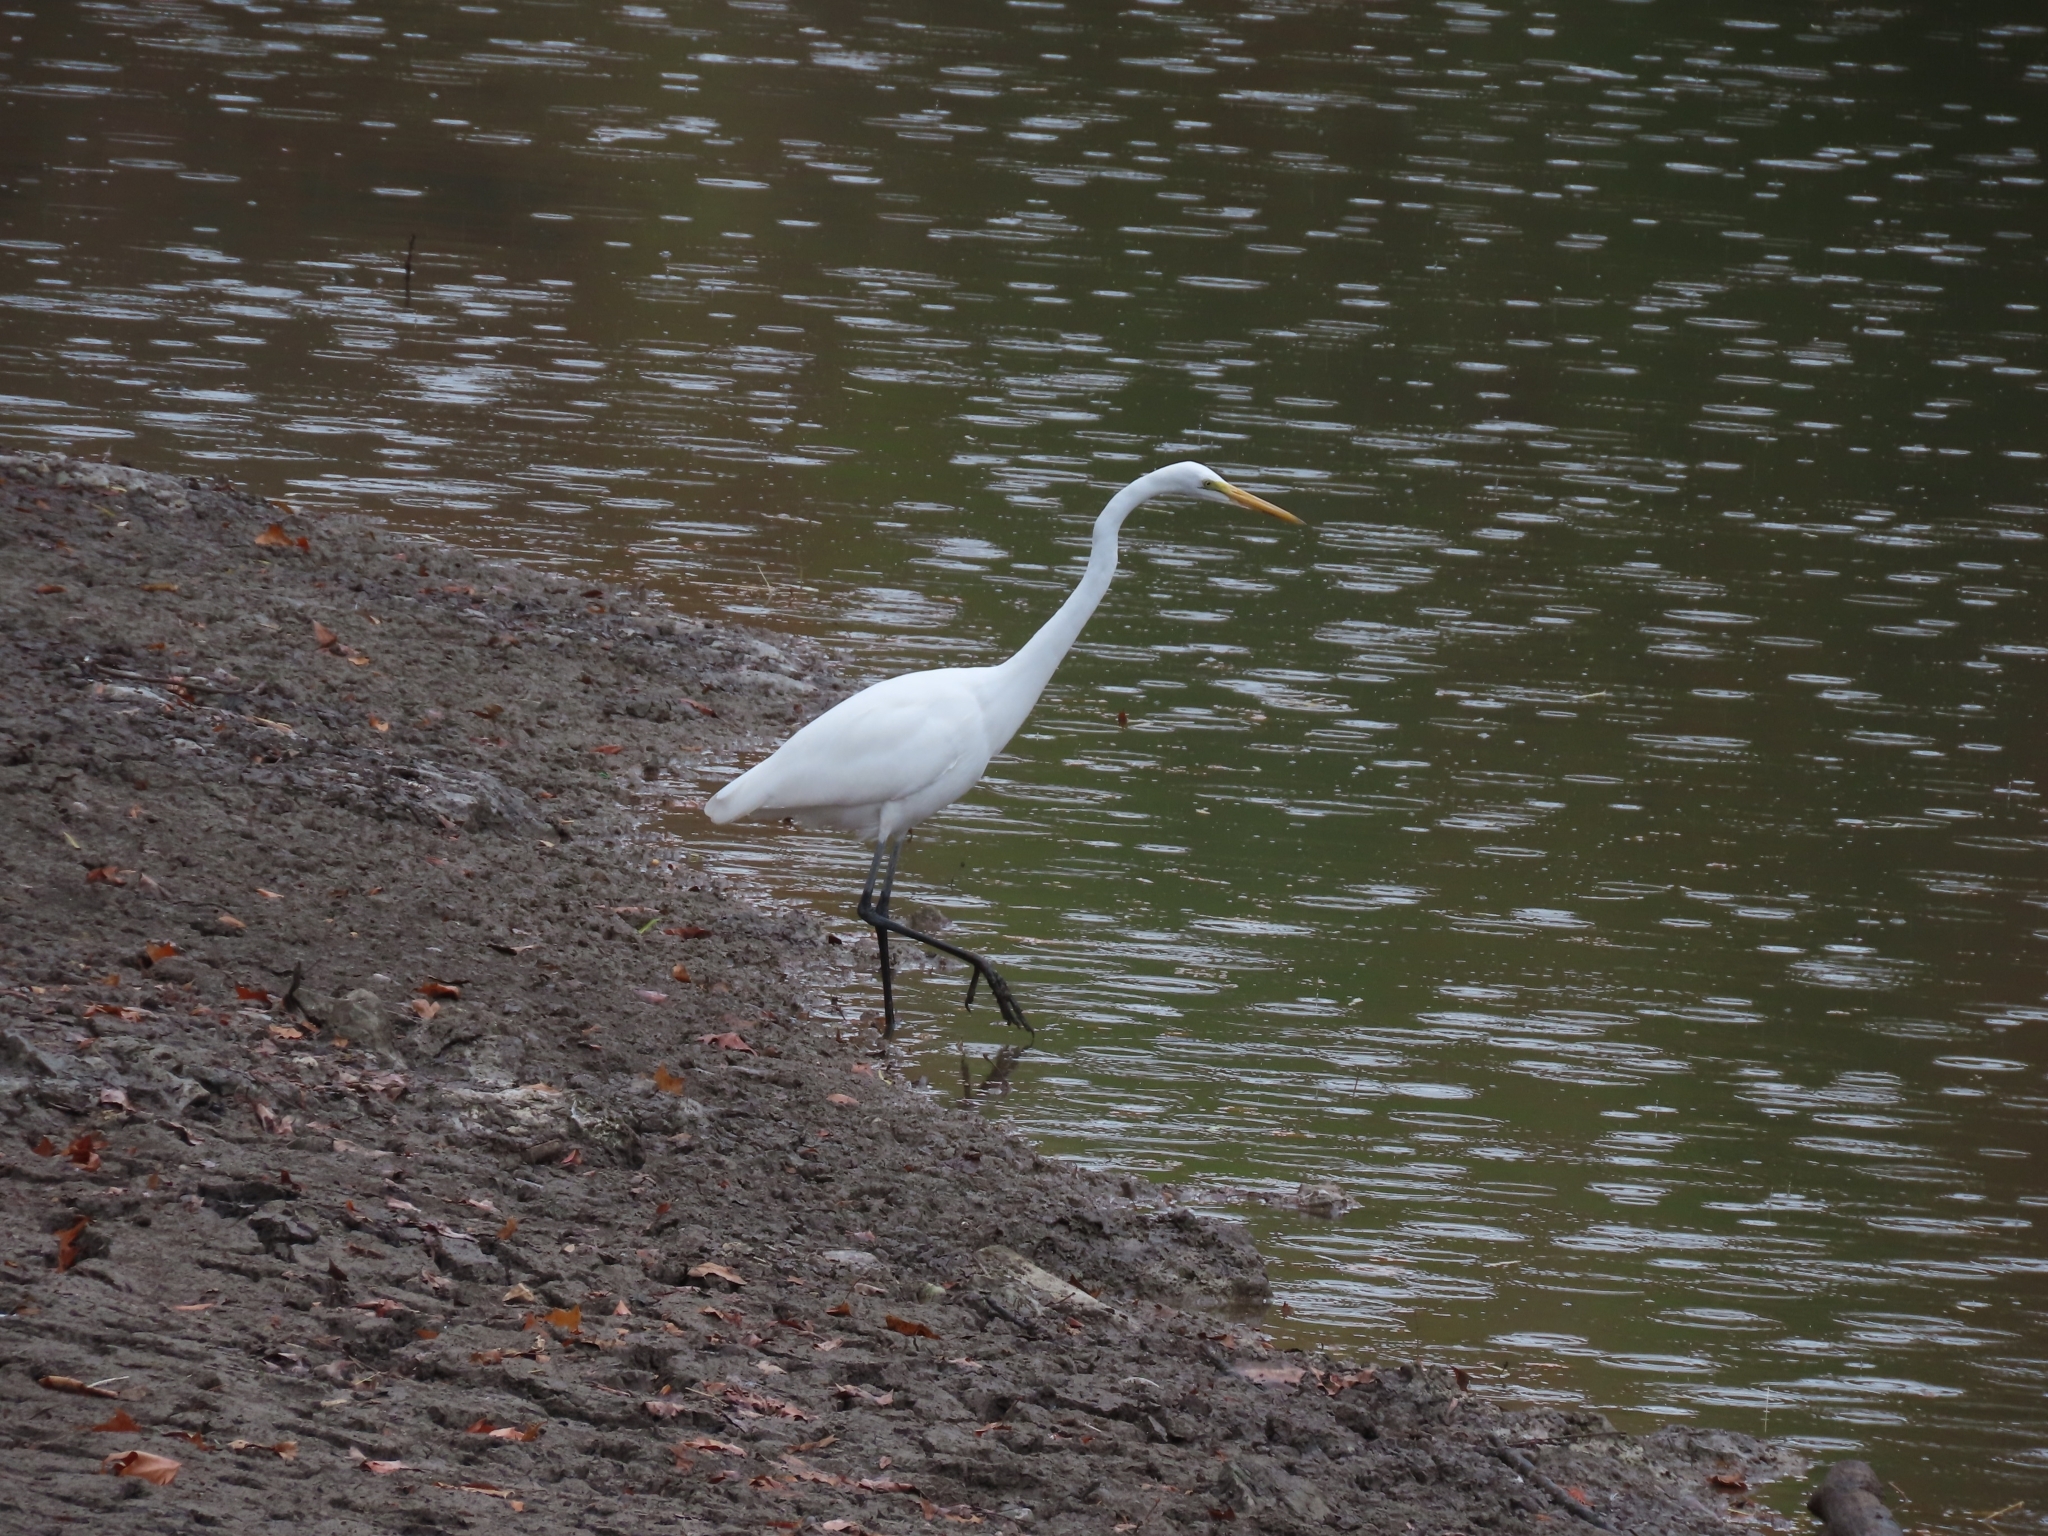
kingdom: Animalia
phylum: Chordata
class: Aves
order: Pelecaniformes
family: Ardeidae
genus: Ardea
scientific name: Ardea alba
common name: Great egret
